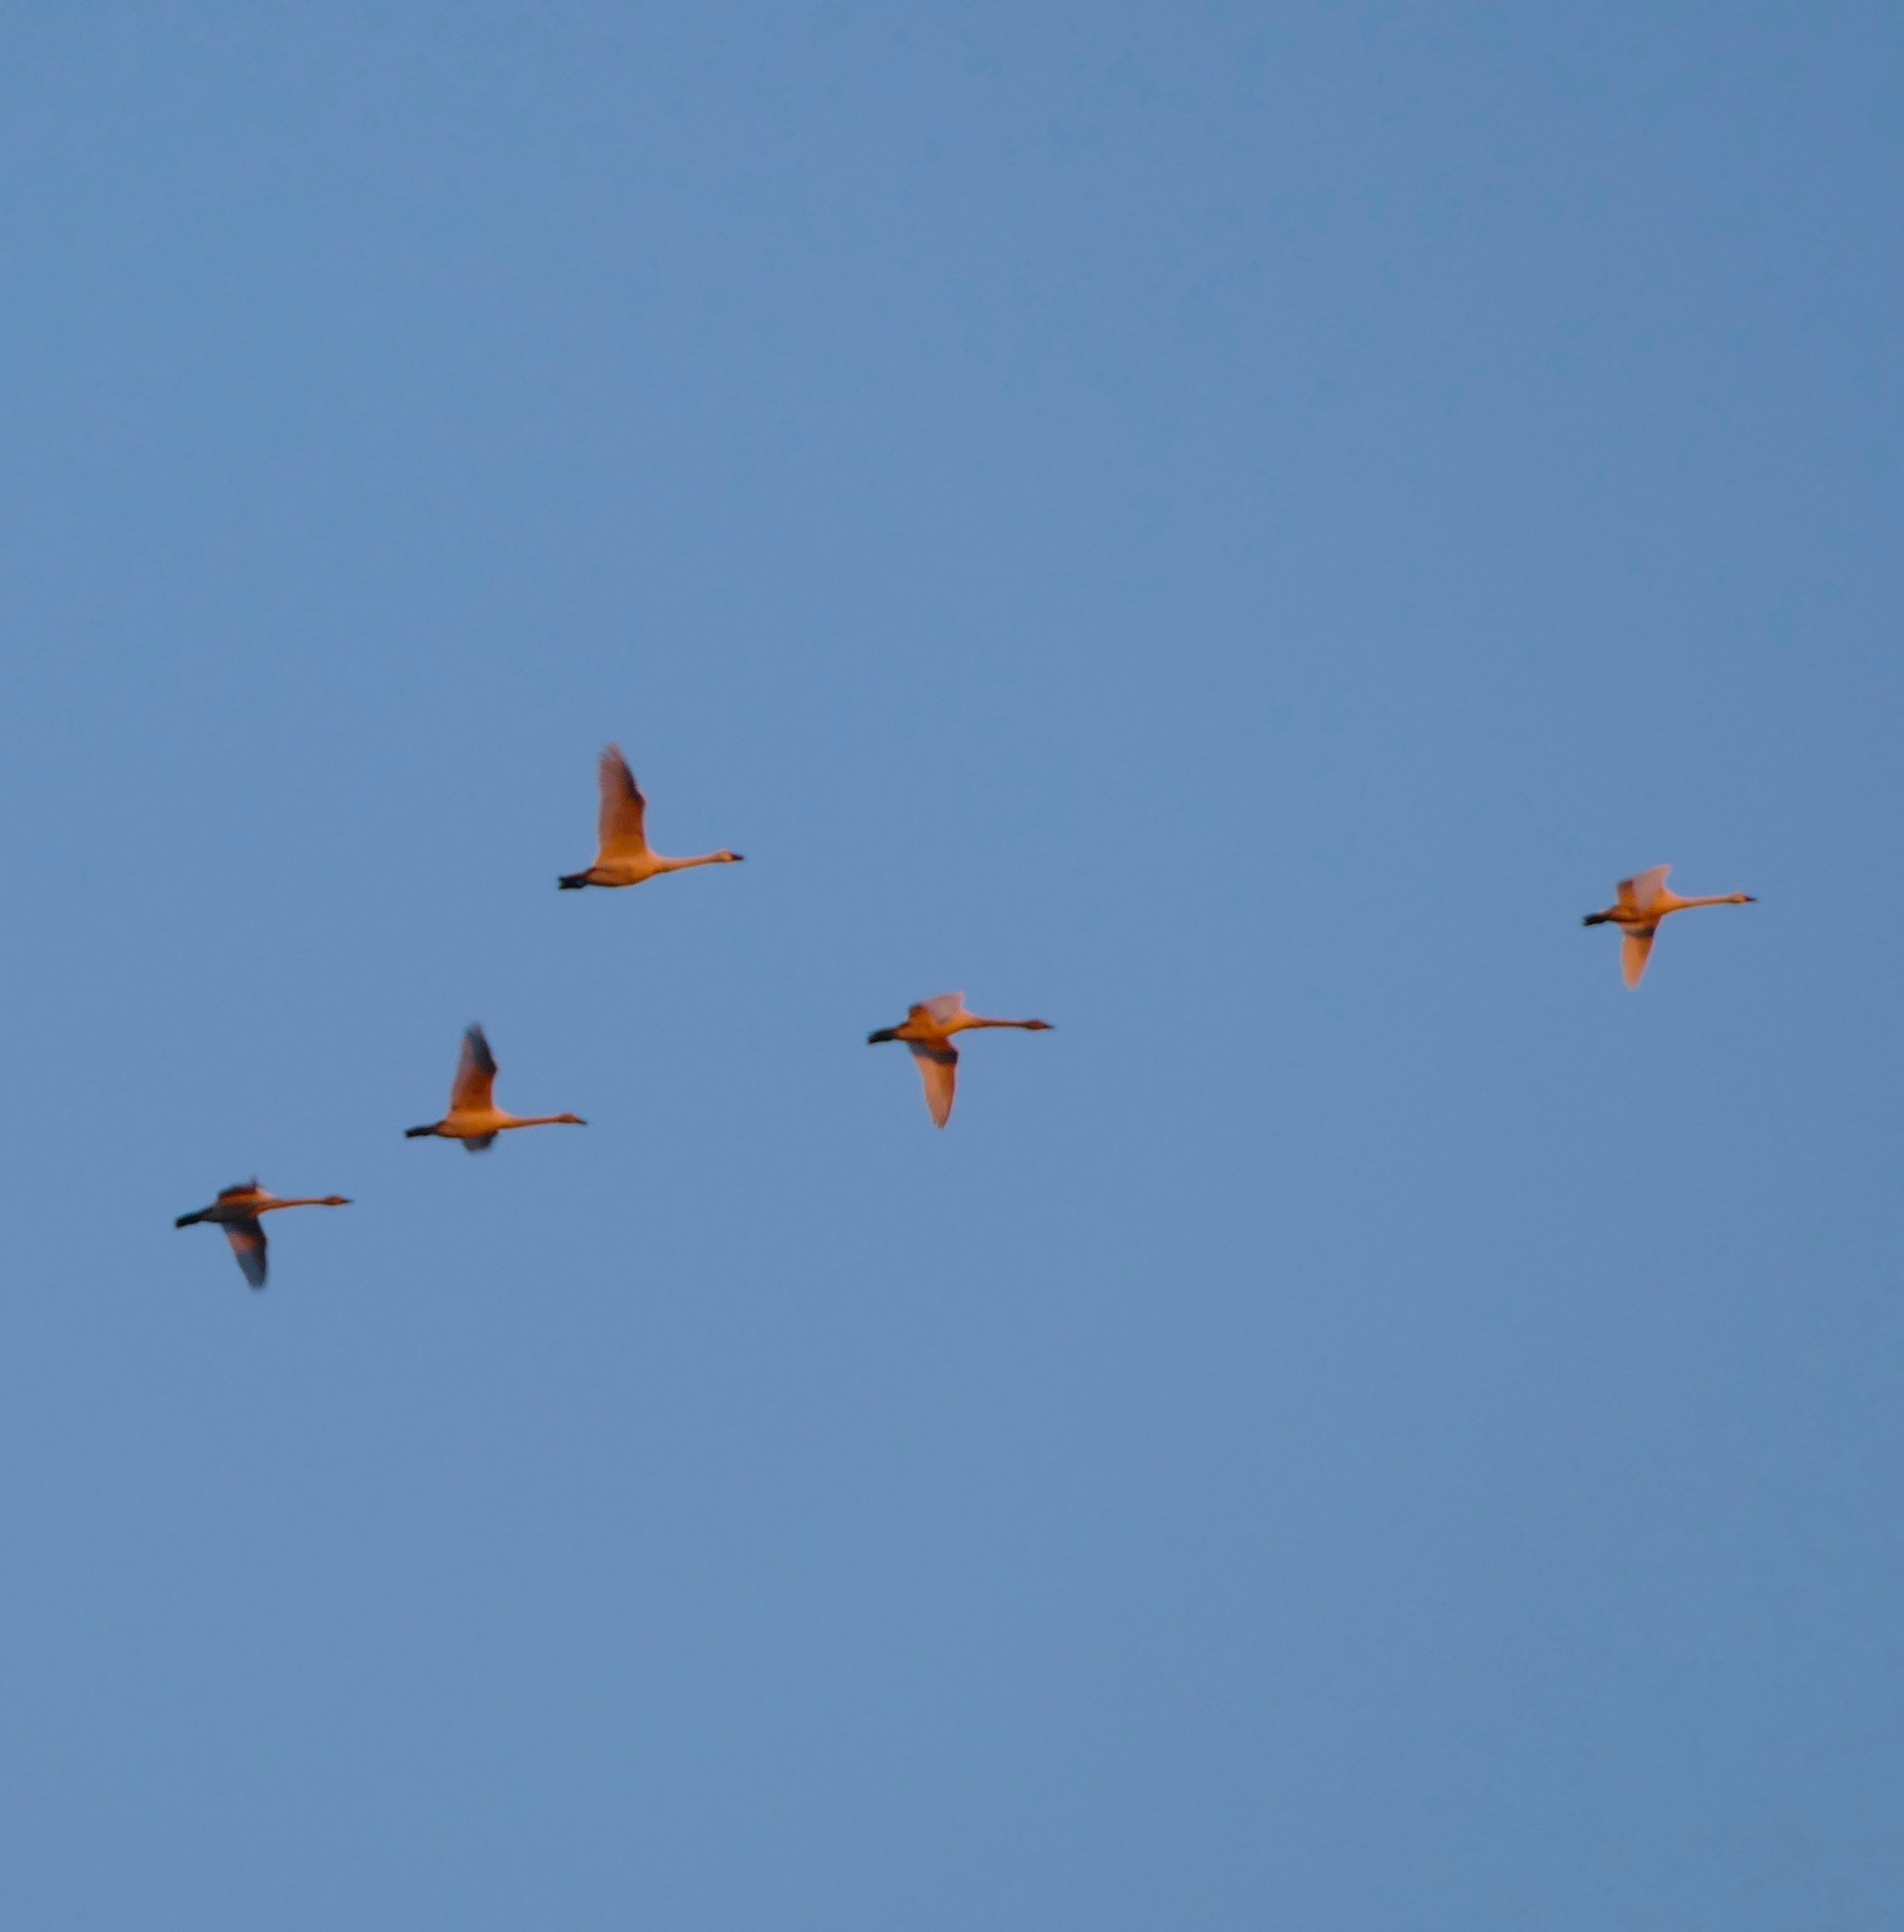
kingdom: Animalia
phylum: Chordata
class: Aves
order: Anseriformes
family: Anatidae
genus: Cygnus
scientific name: Cygnus columbianus
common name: Tundra swan
